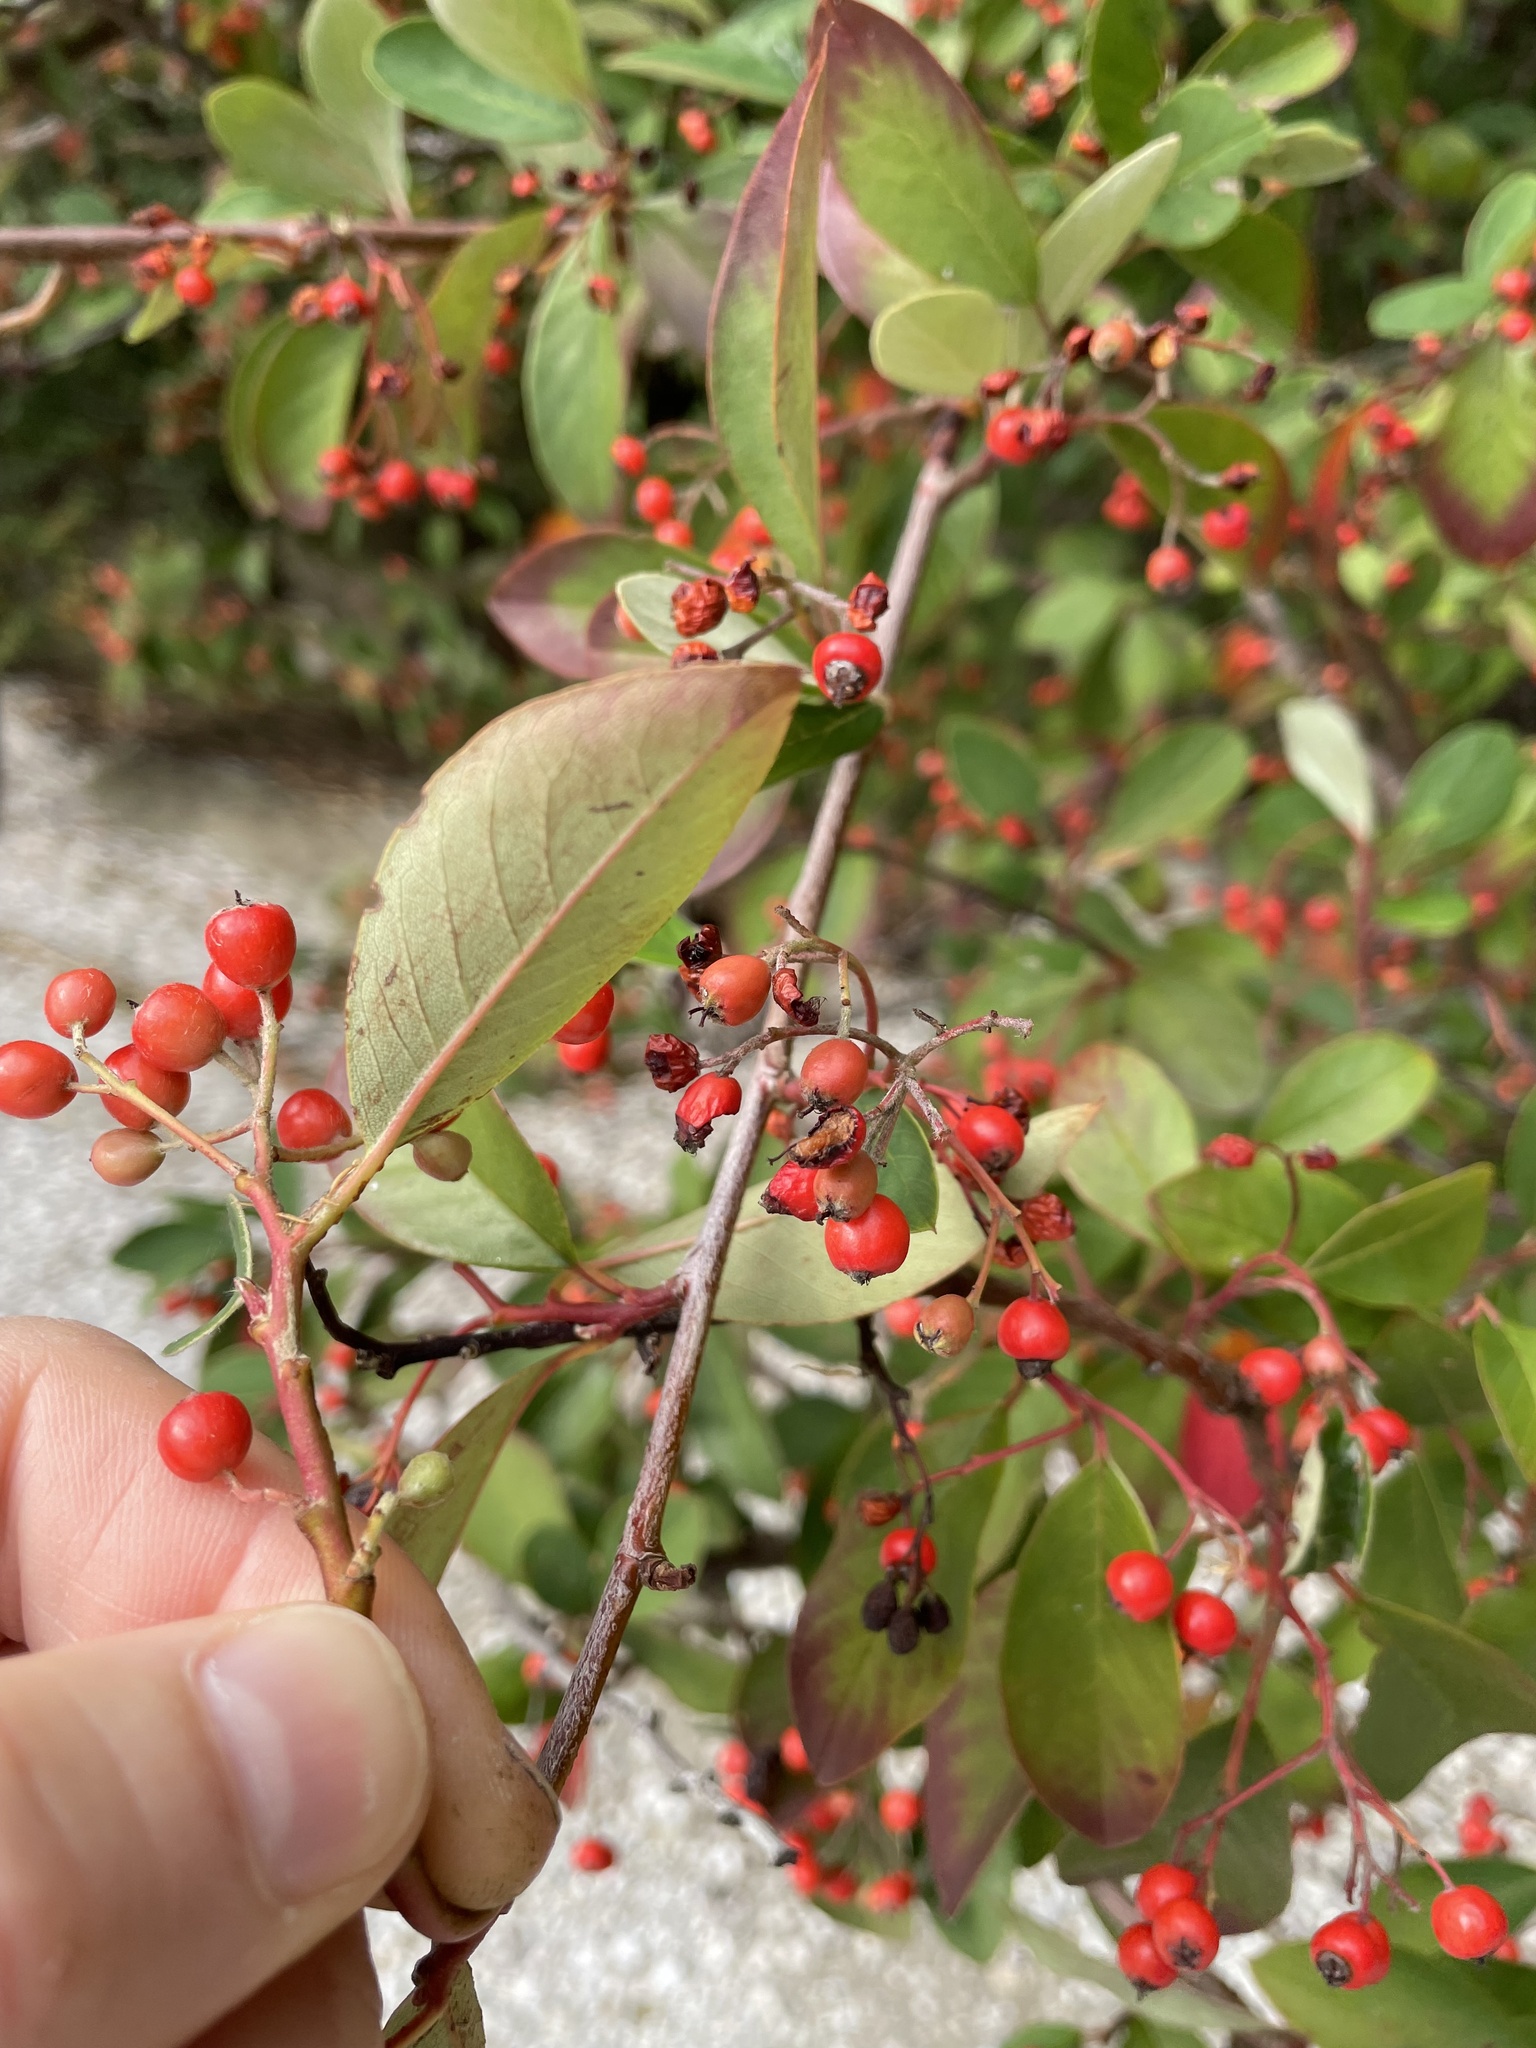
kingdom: Plantae
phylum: Tracheophyta
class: Magnoliopsida
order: Rosales
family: Rosaceae
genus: Cotoneaster
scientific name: Cotoneaster glaucophyllus
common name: Glaucous cotoneaster
